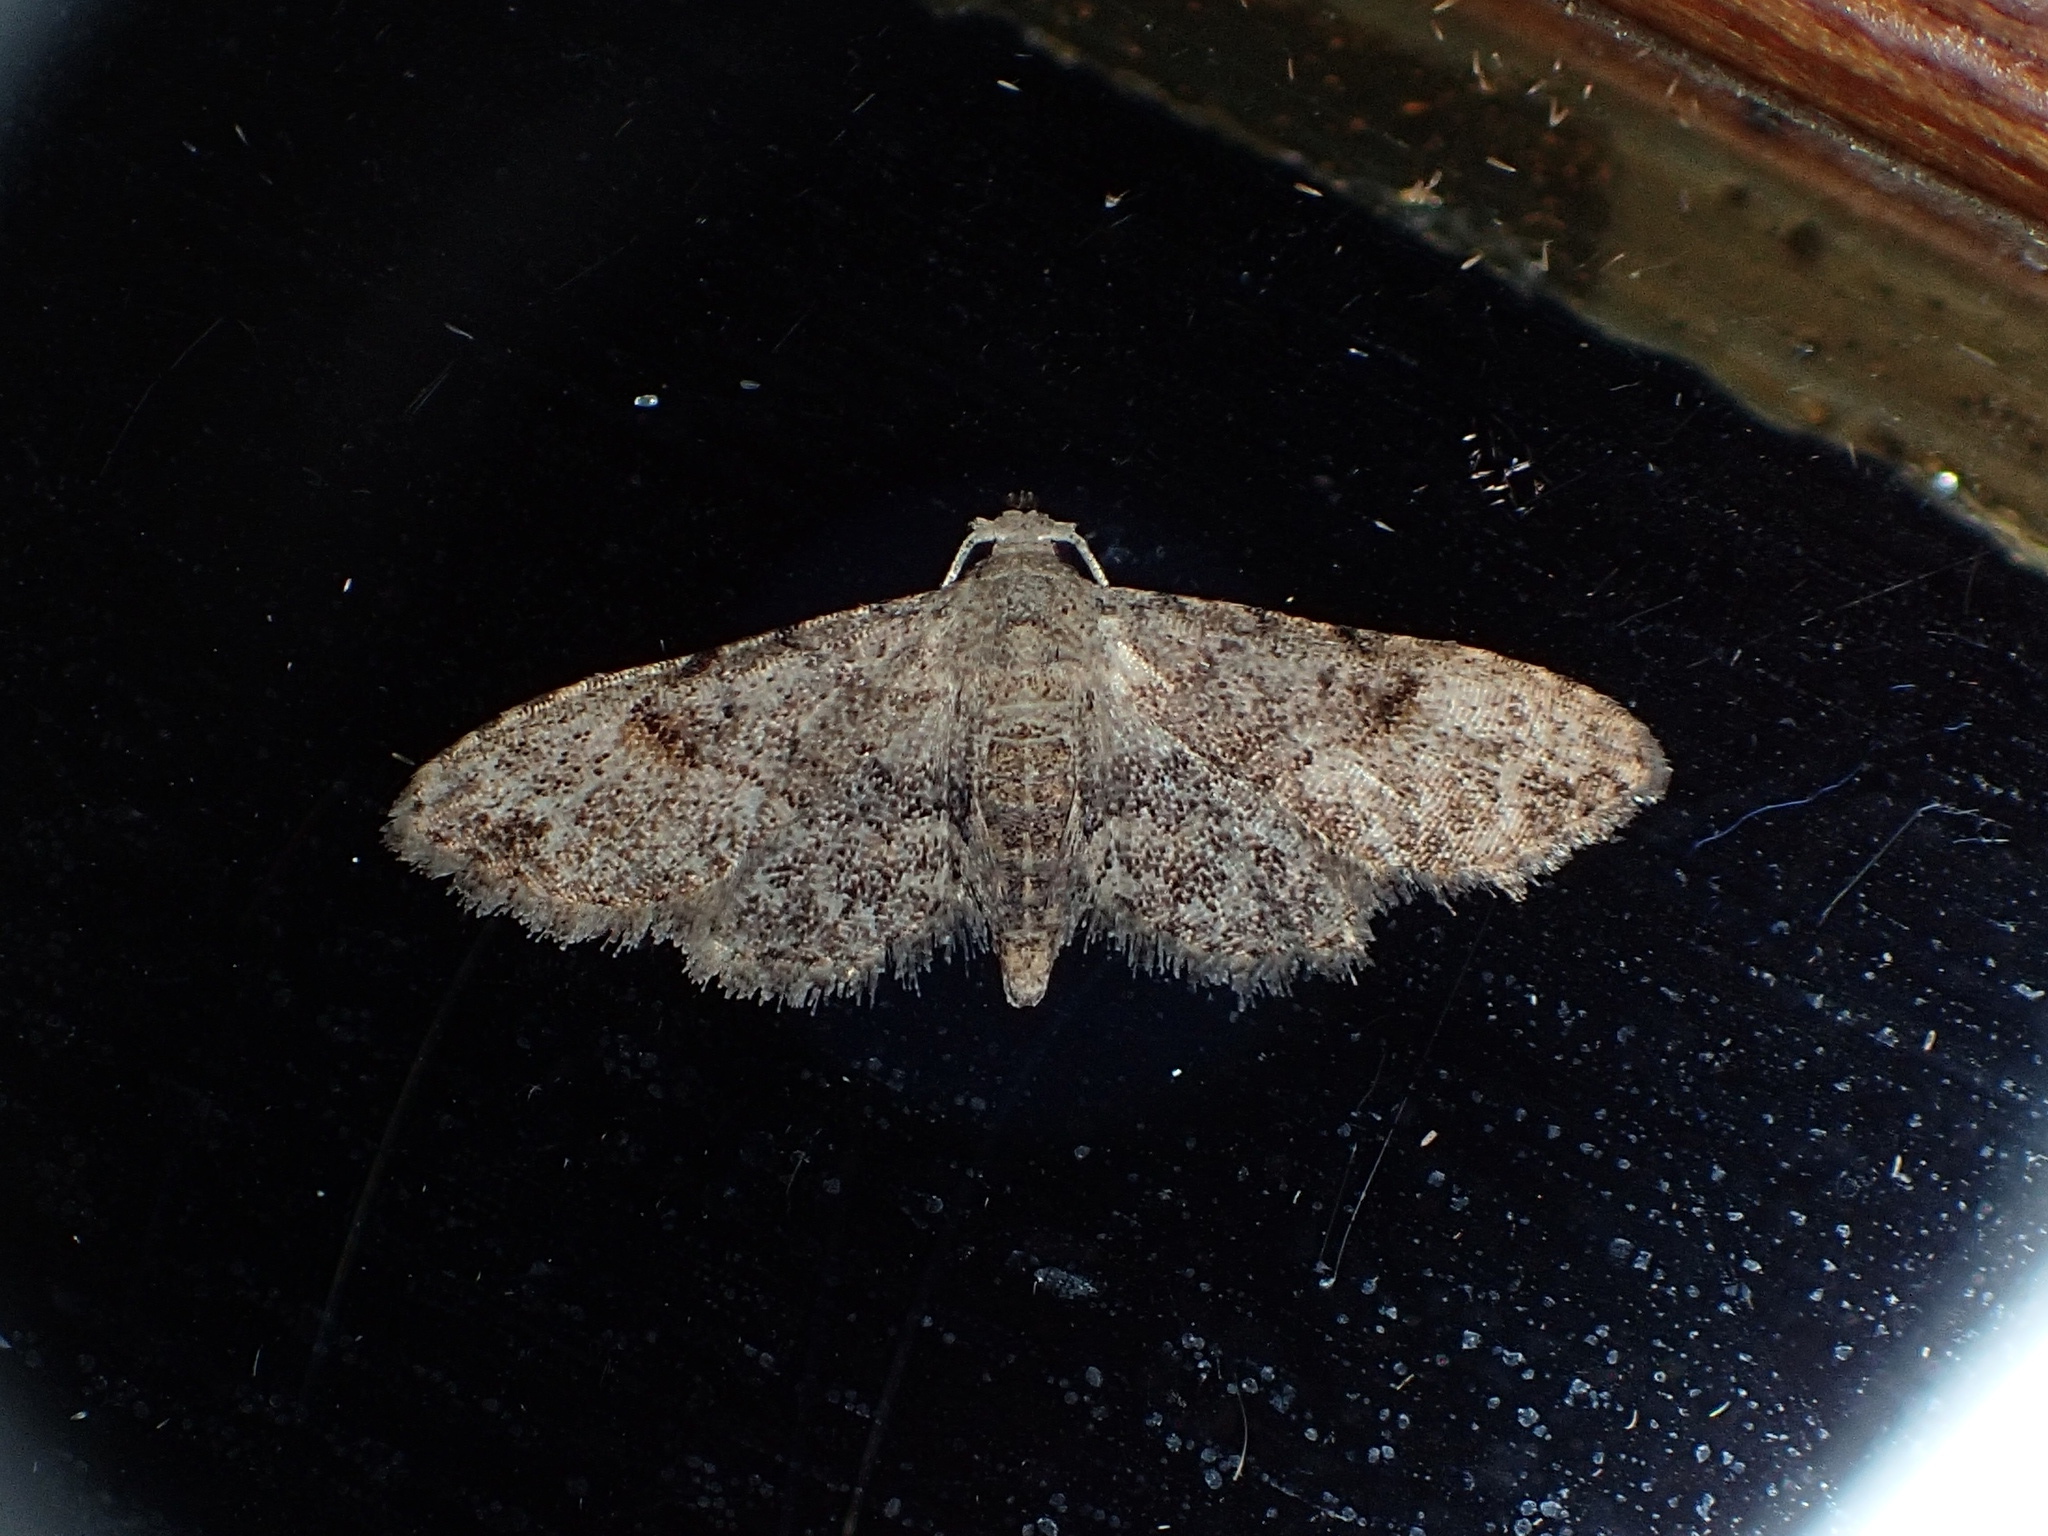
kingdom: Animalia
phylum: Arthropoda
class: Insecta
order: Lepidoptera
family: Erebidae
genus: Sigela
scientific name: Sigela brauneata
